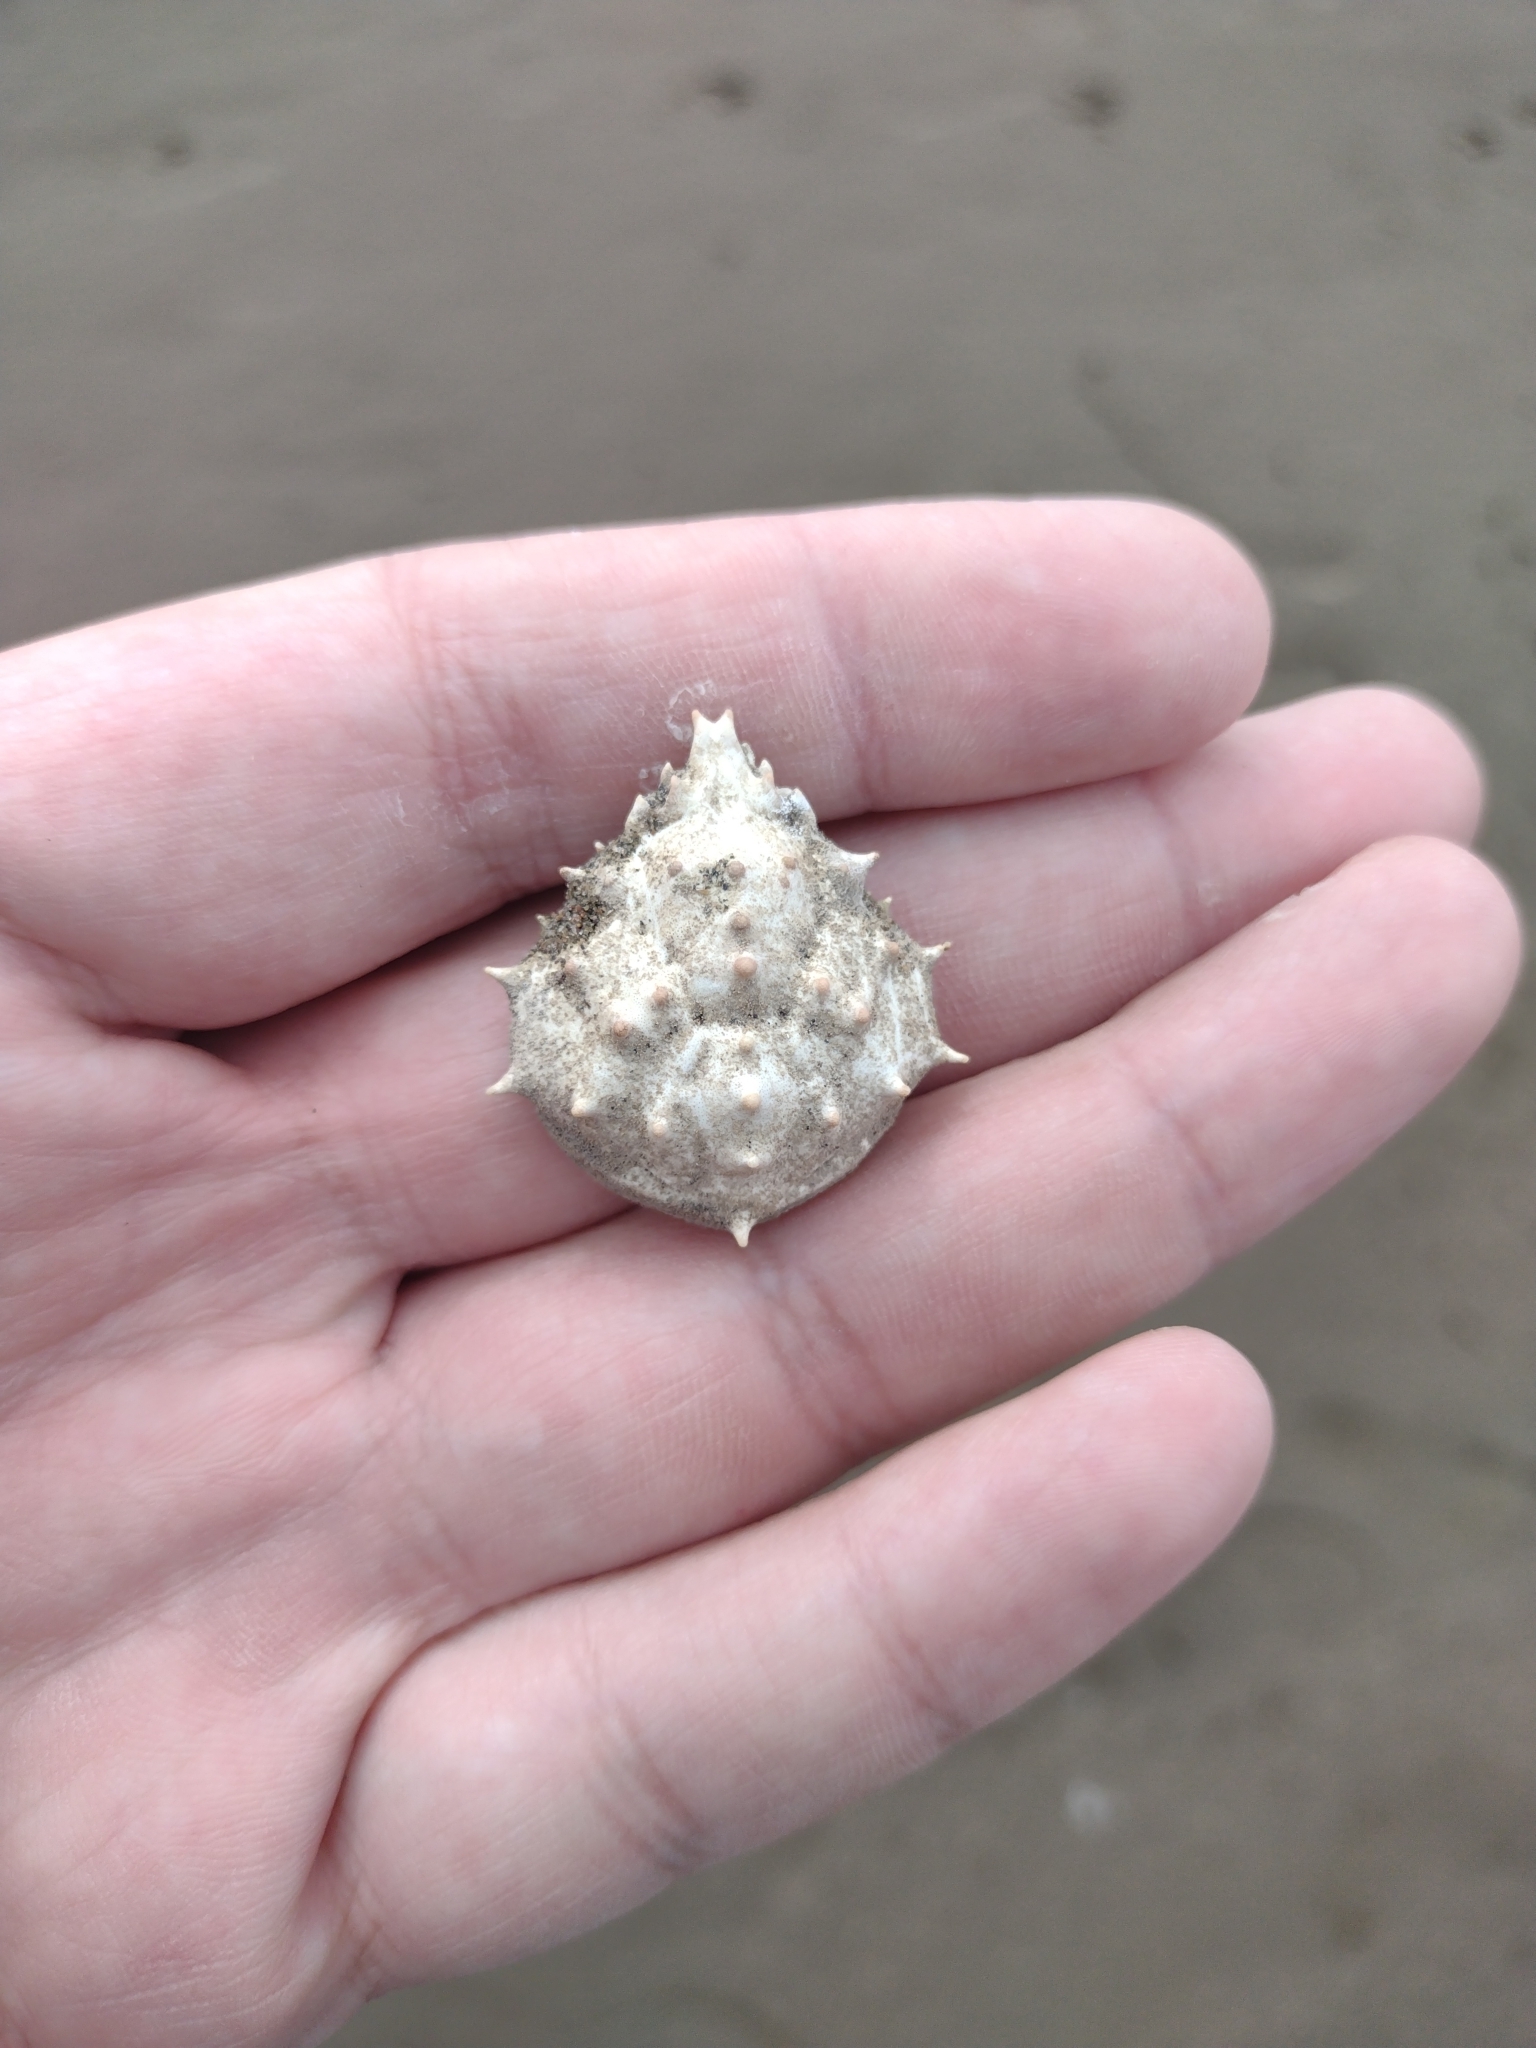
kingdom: Animalia
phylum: Arthropoda
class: Malacostraca
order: Decapoda
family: Epialtidae
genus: Libinia
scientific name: Libinia spinosa
